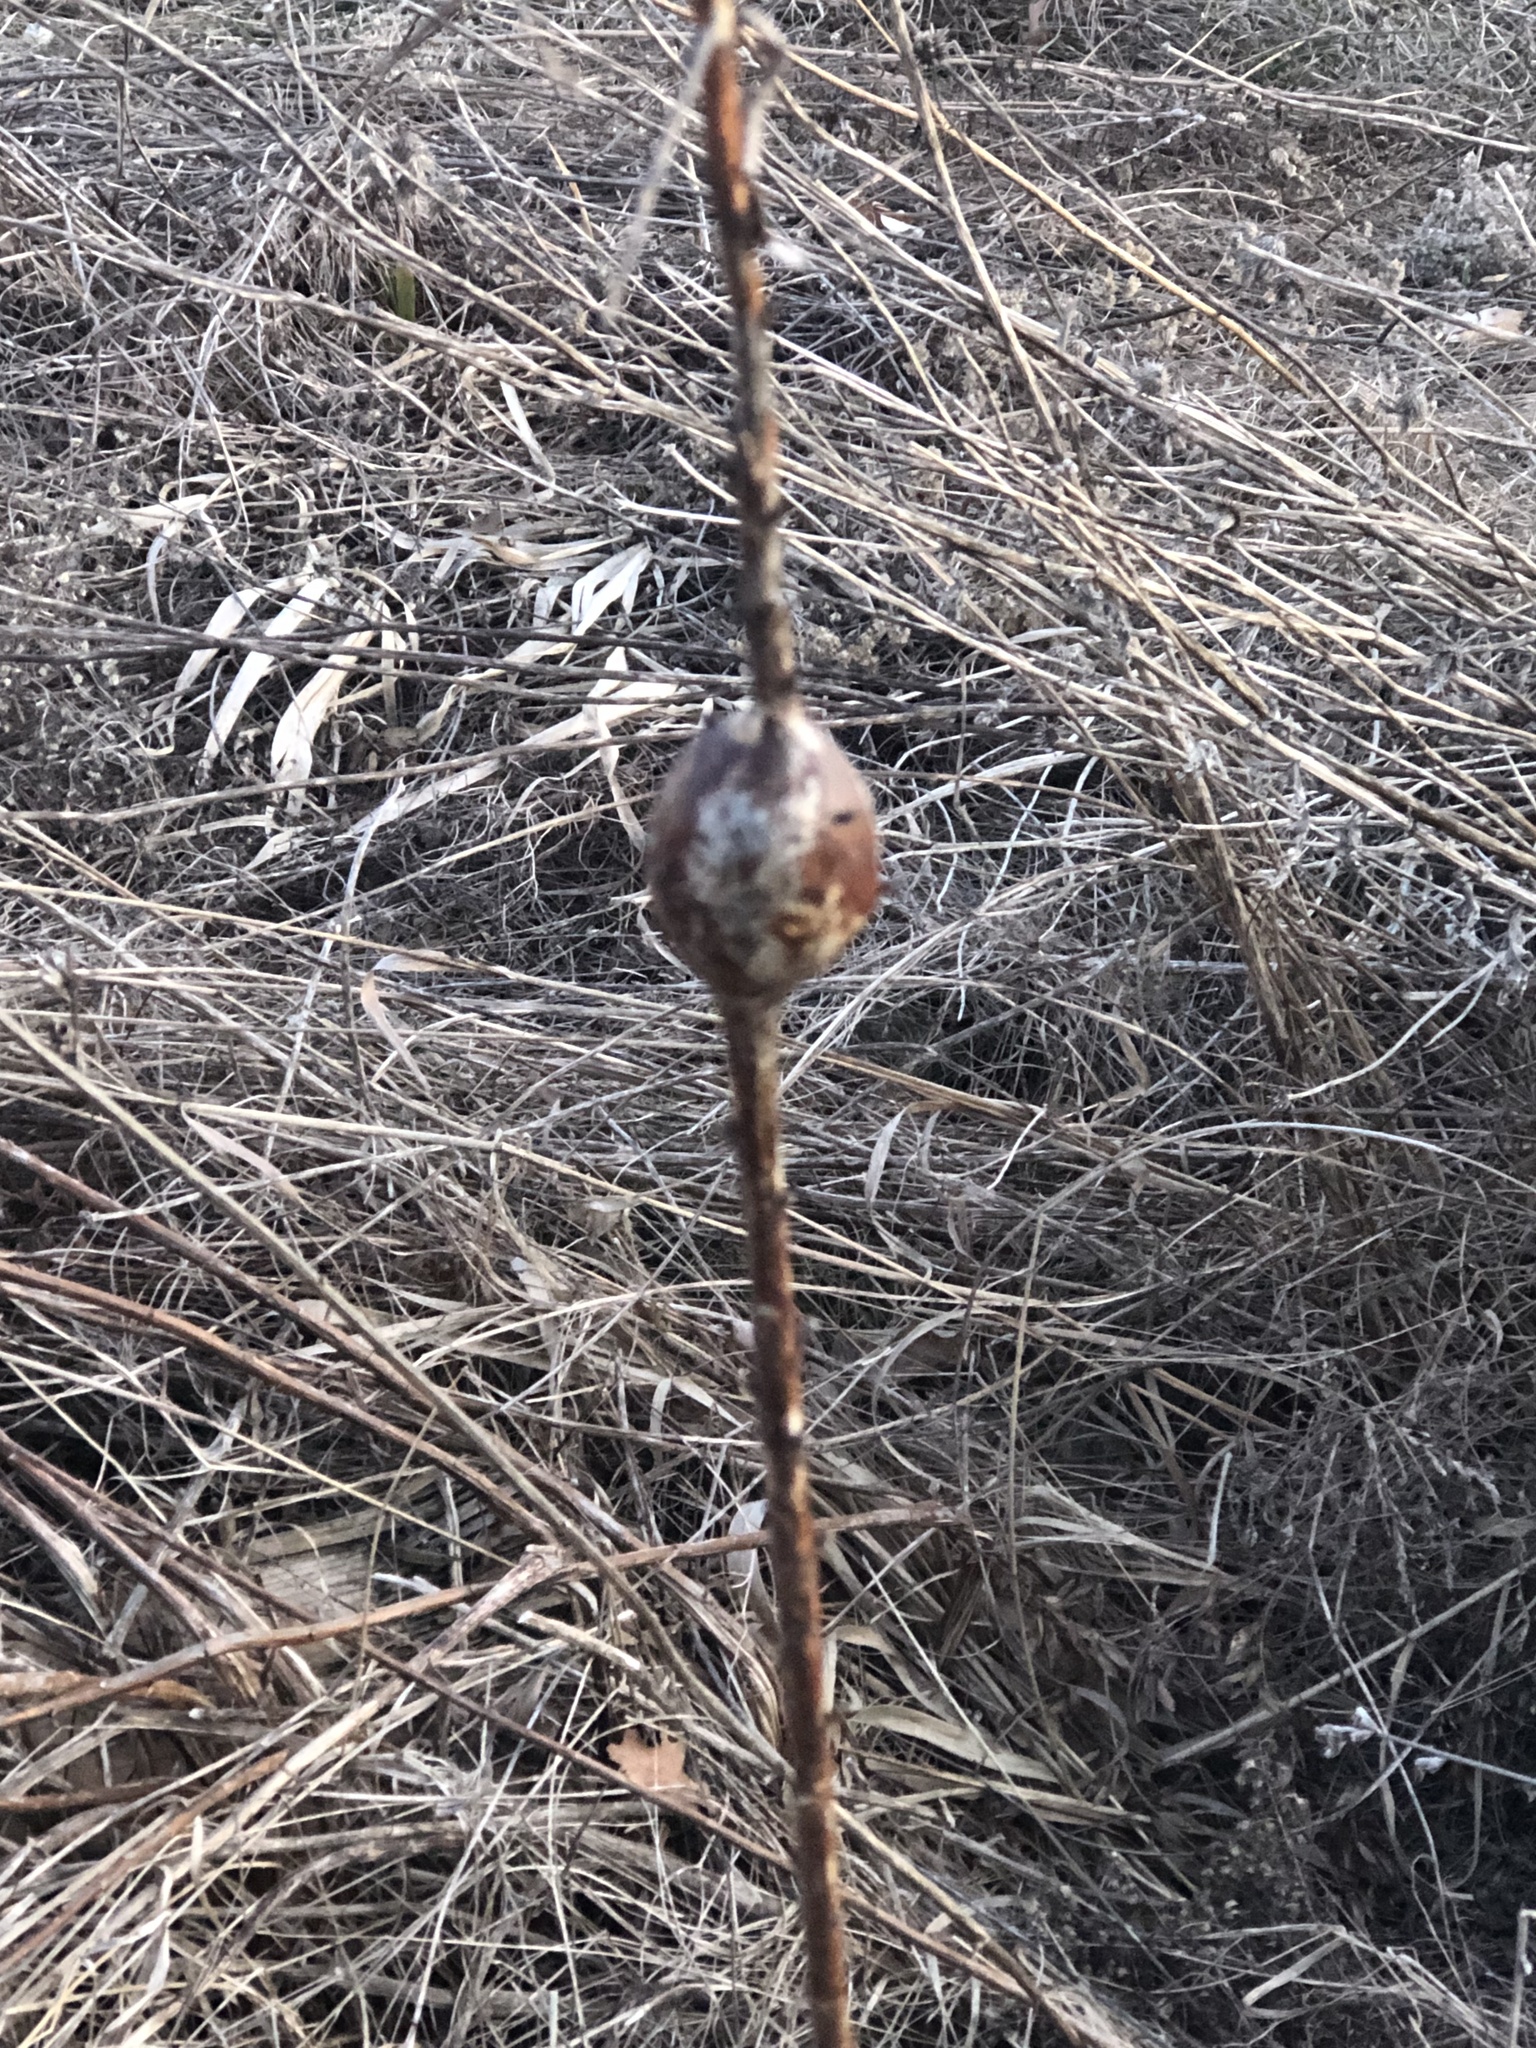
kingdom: Animalia
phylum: Arthropoda
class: Insecta
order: Diptera
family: Tephritidae
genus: Eurosta
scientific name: Eurosta solidaginis
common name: Goldenrod gall fly
